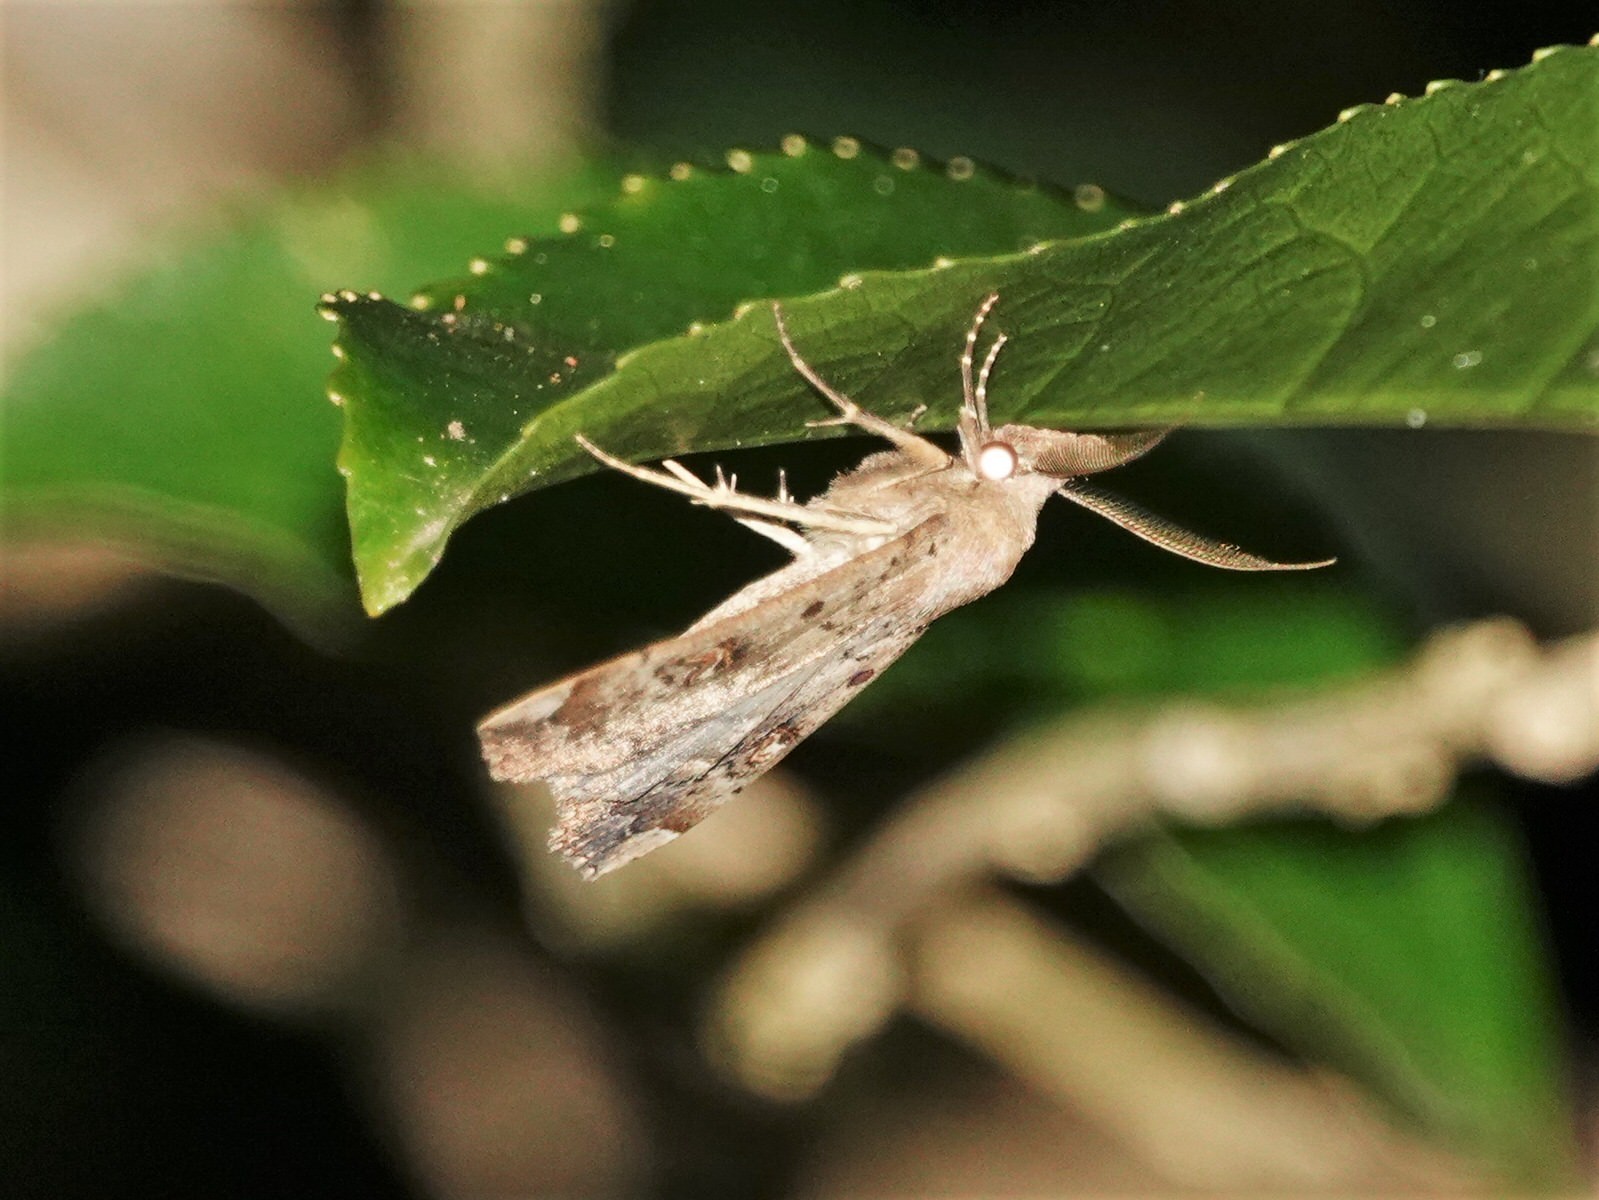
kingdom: Animalia
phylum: Arthropoda
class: Insecta
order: Lepidoptera
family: Erebidae
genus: Rhapsa
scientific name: Rhapsa scotosialis
